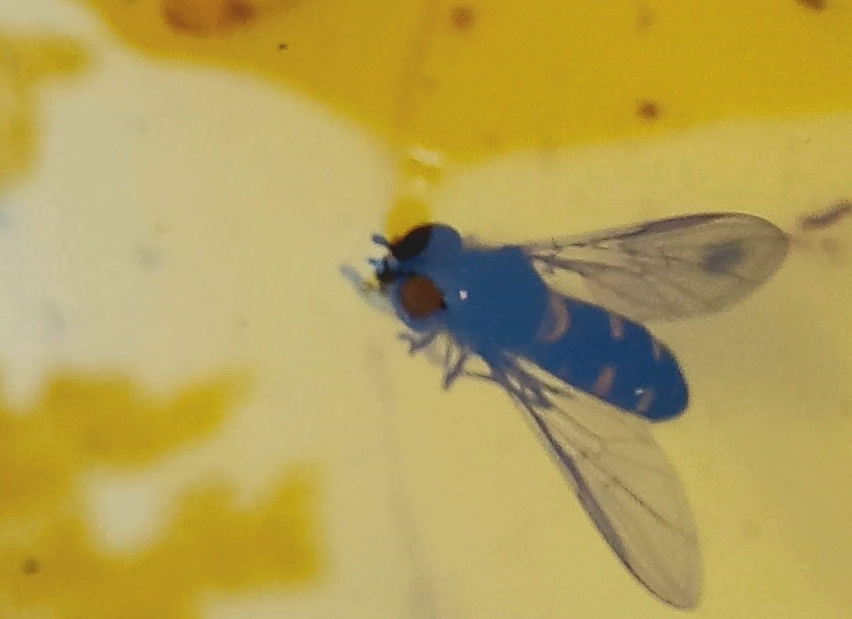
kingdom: Animalia
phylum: Arthropoda
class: Insecta
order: Diptera
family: Syrphidae
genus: Melangyna
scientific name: Melangyna novaezelandiae
